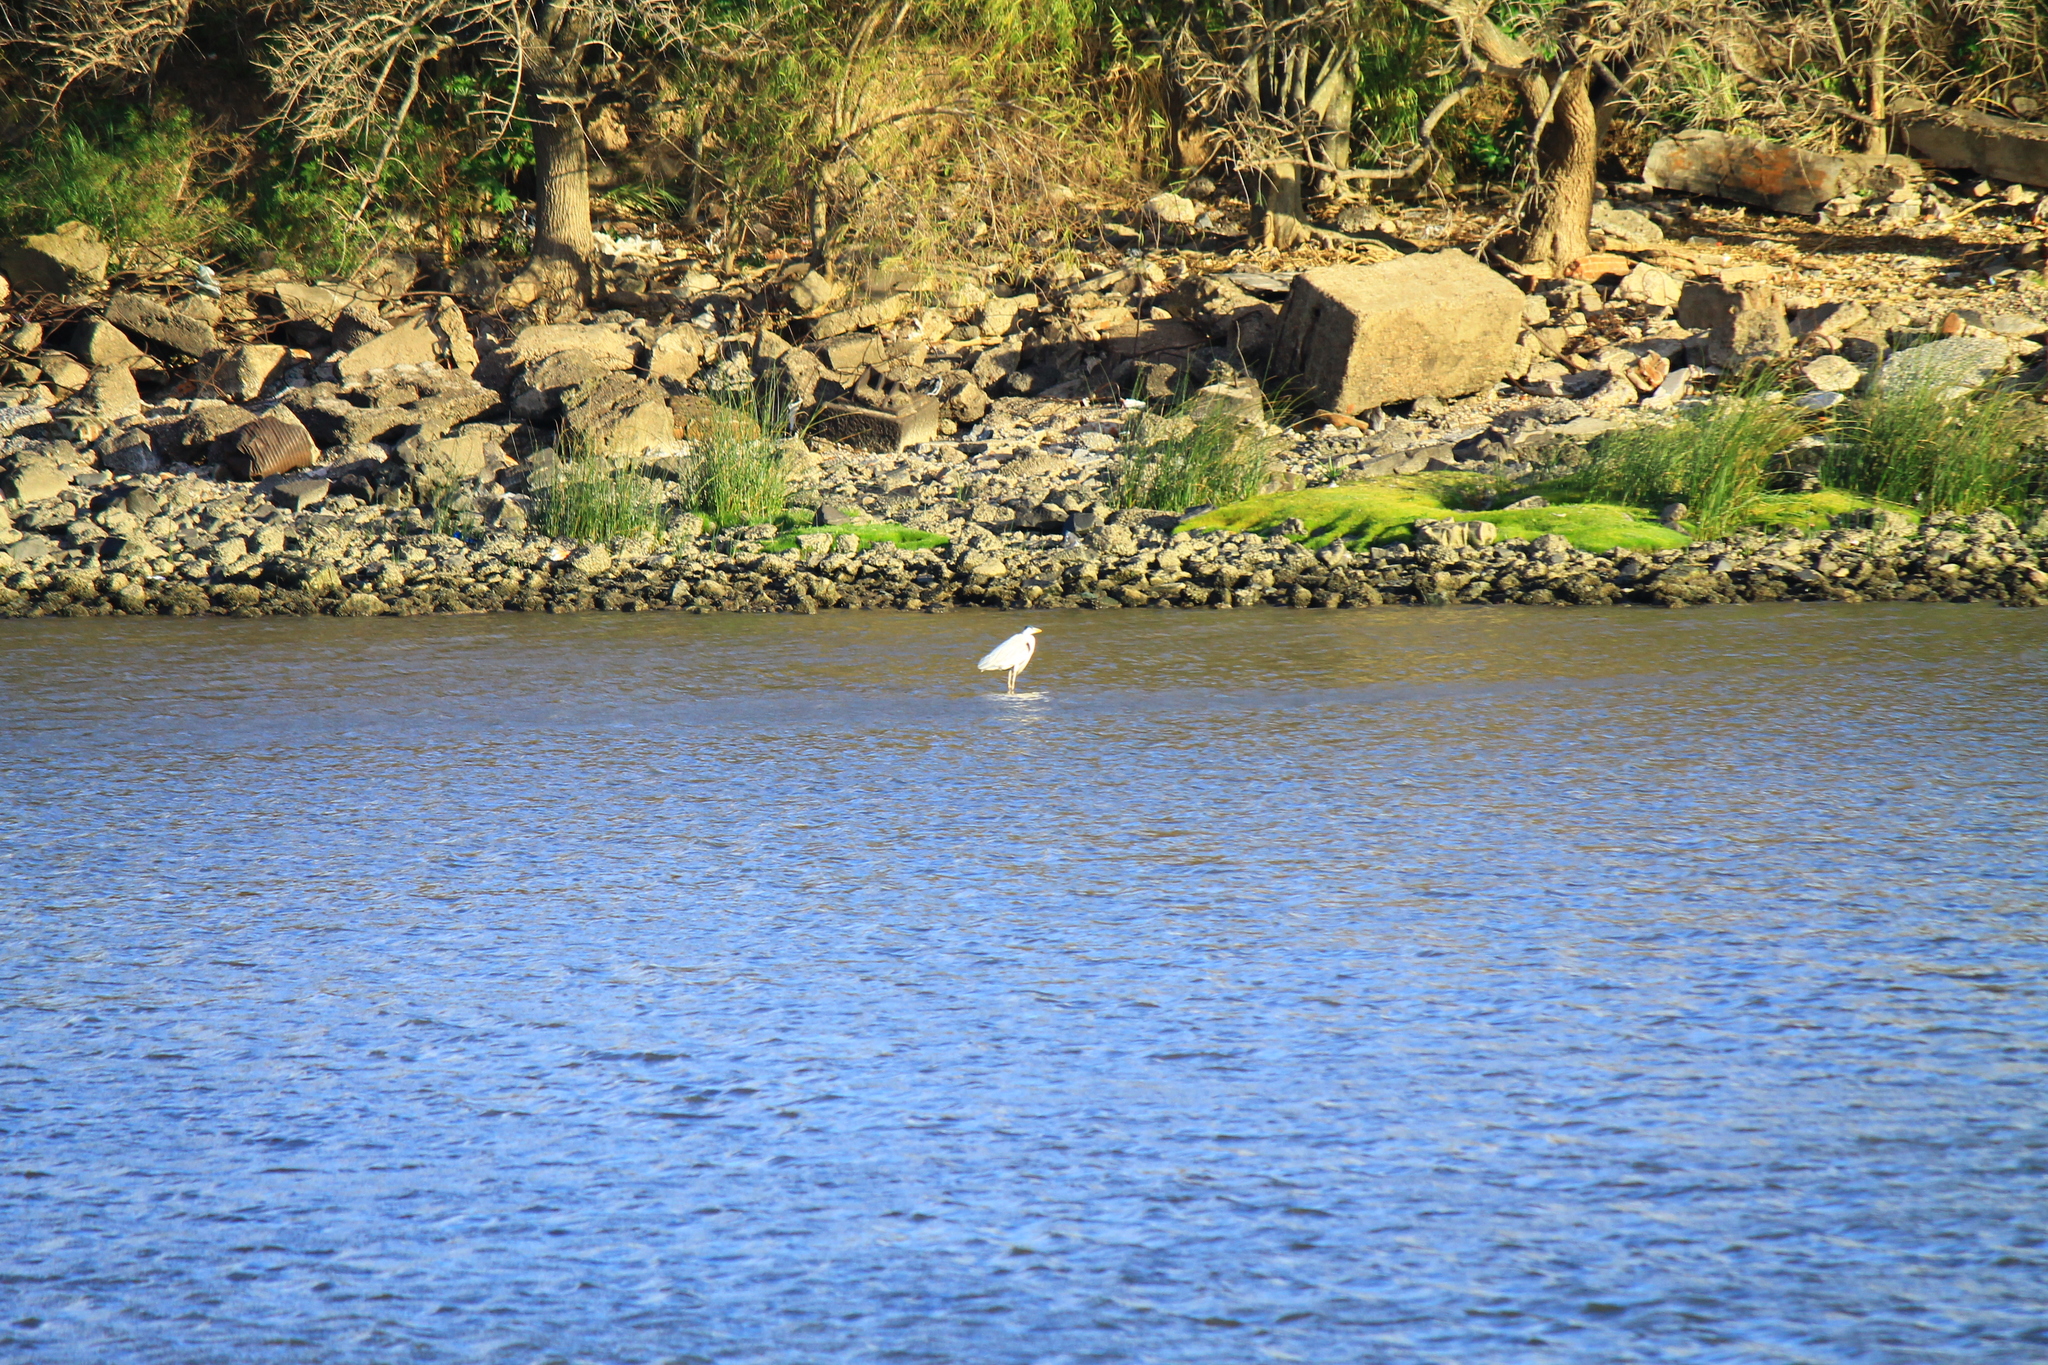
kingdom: Animalia
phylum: Chordata
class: Aves
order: Pelecaniformes
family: Ardeidae
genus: Ardea
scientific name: Ardea cocoi
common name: Cocoi heron
